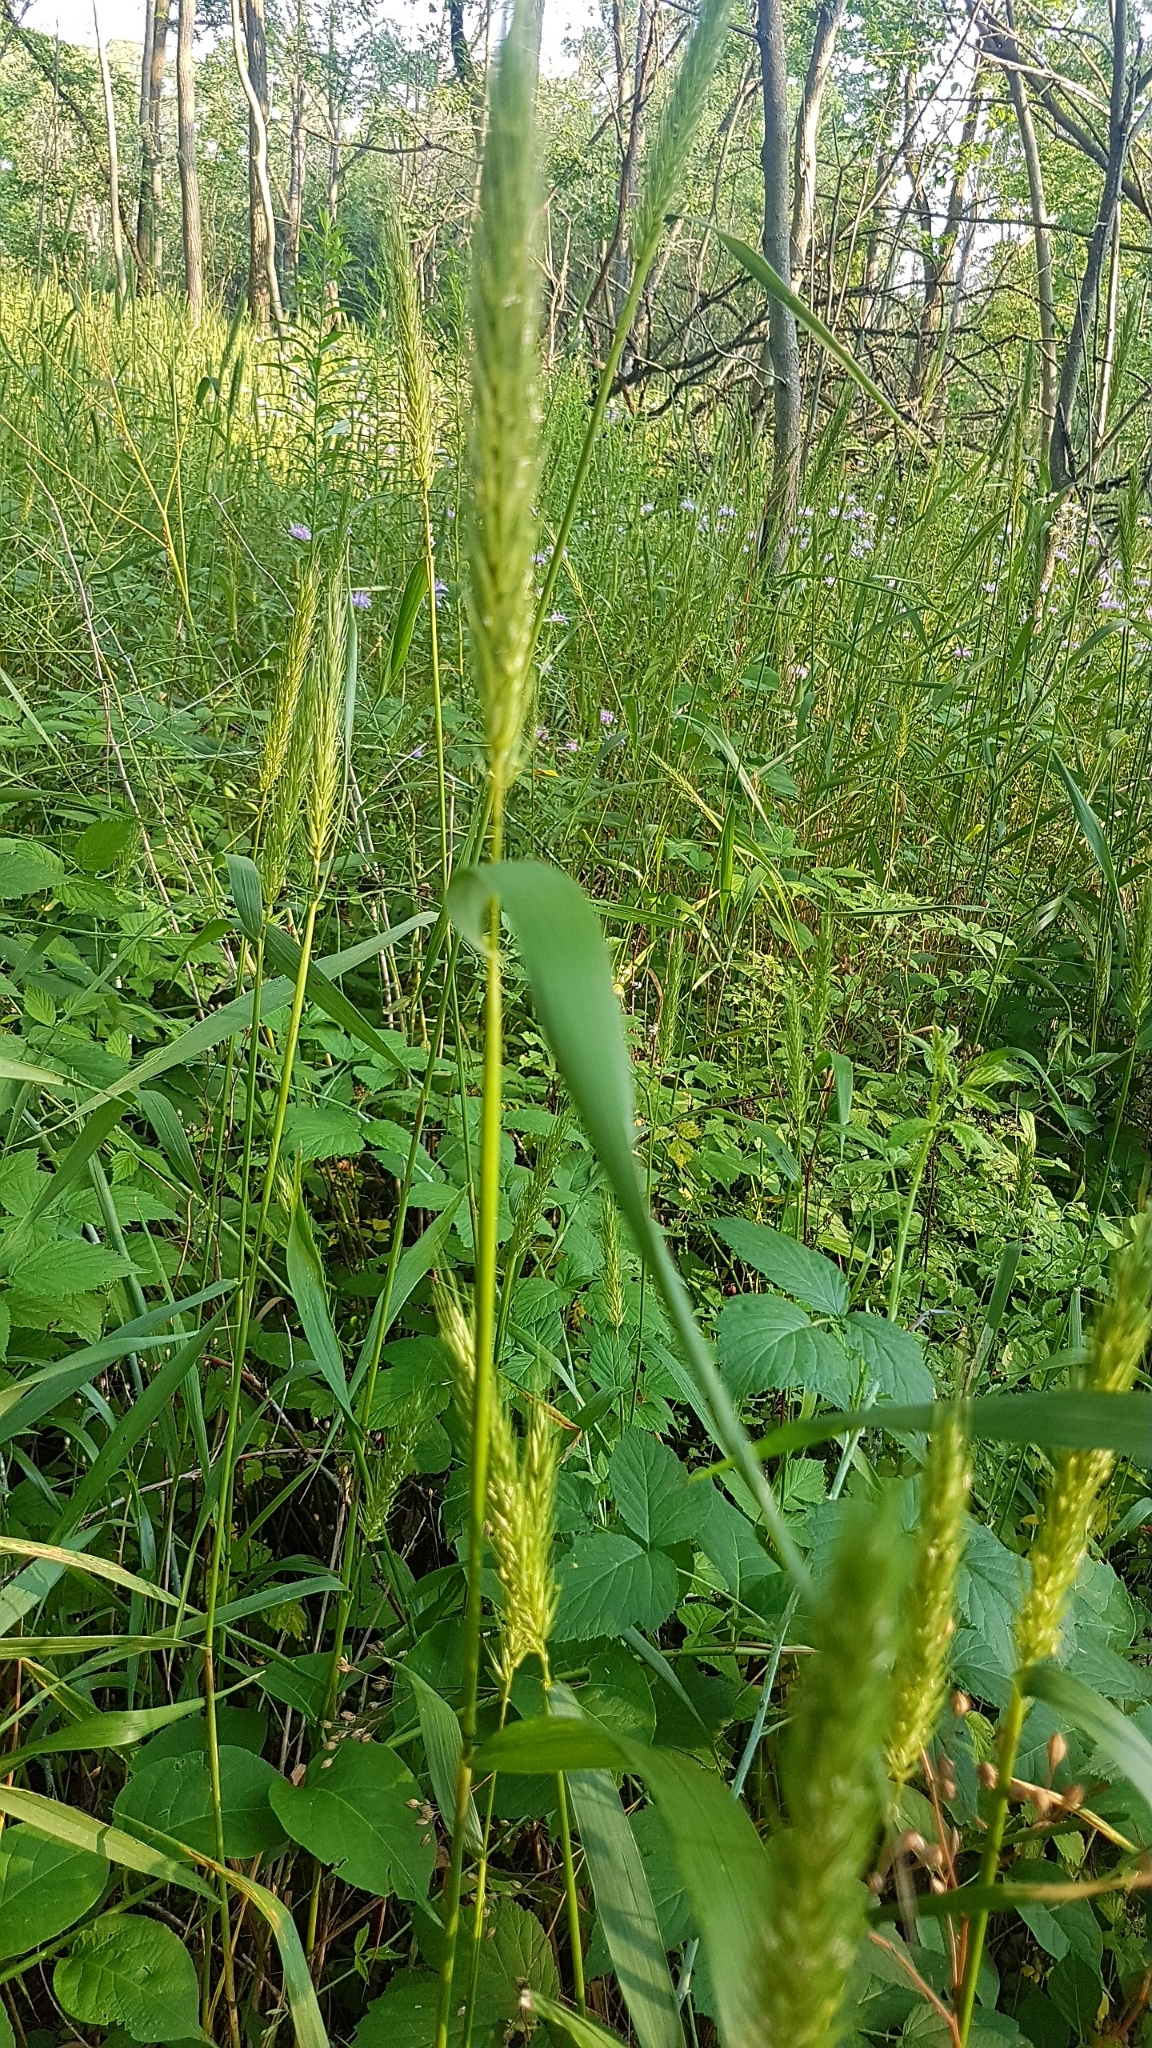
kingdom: Plantae
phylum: Tracheophyta
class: Liliopsida
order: Poales
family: Poaceae
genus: Elymus
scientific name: Elymus virginicus
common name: Common eastern wildrye
